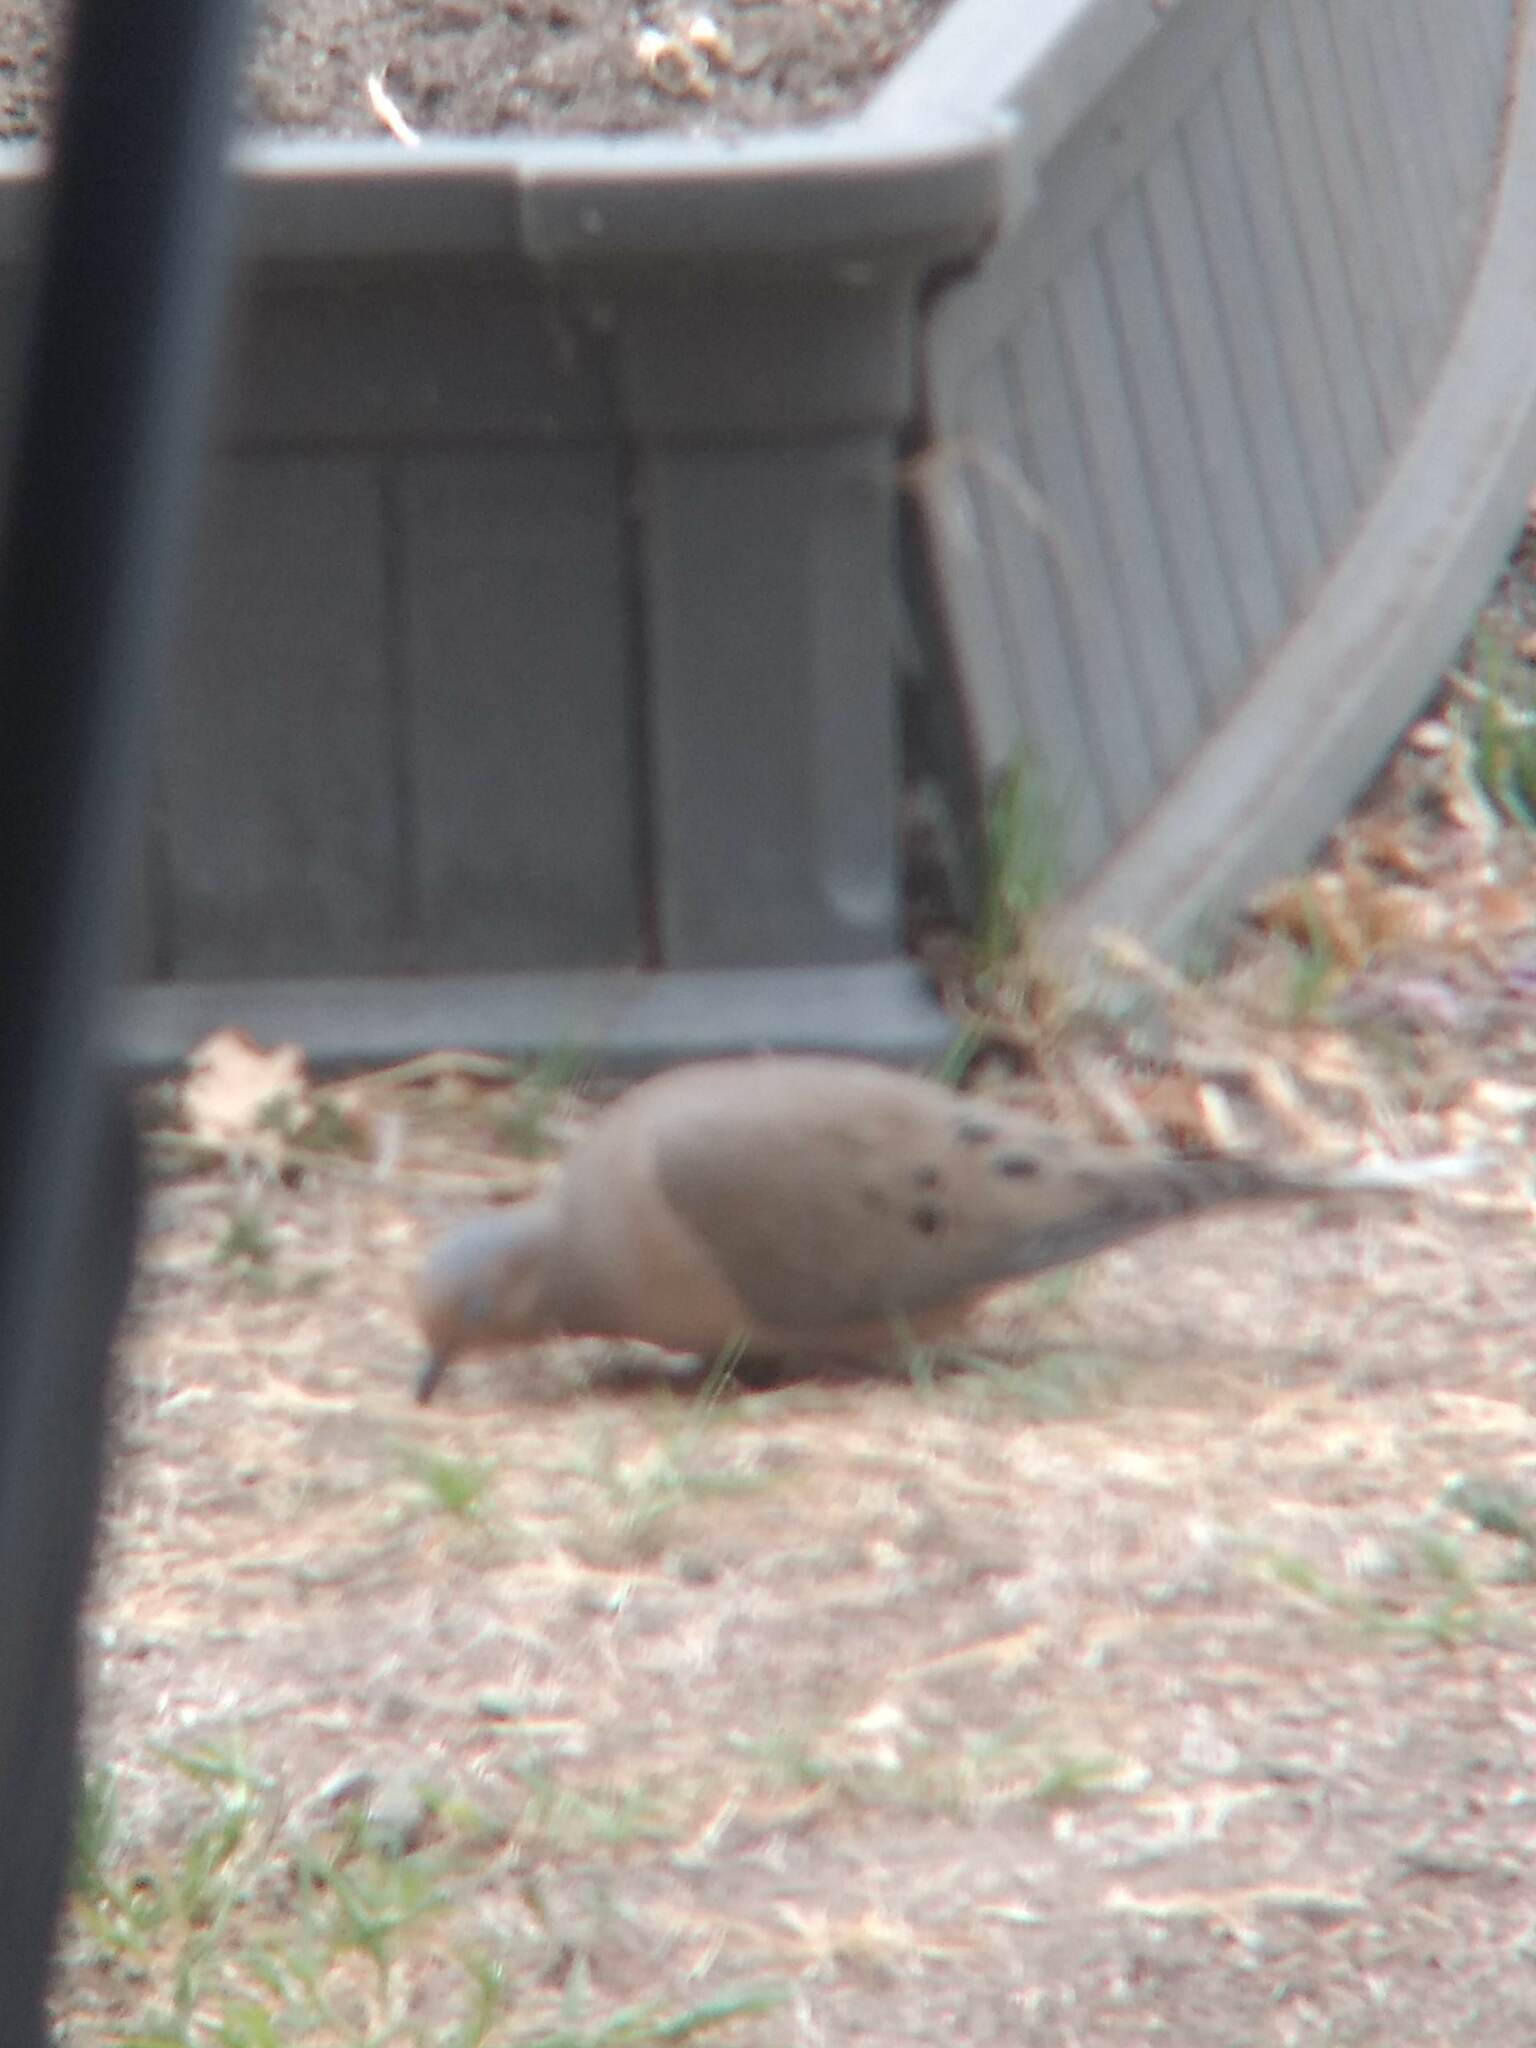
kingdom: Animalia
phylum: Chordata
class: Aves
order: Columbiformes
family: Columbidae
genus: Zenaida
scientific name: Zenaida macroura
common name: Mourning dove
